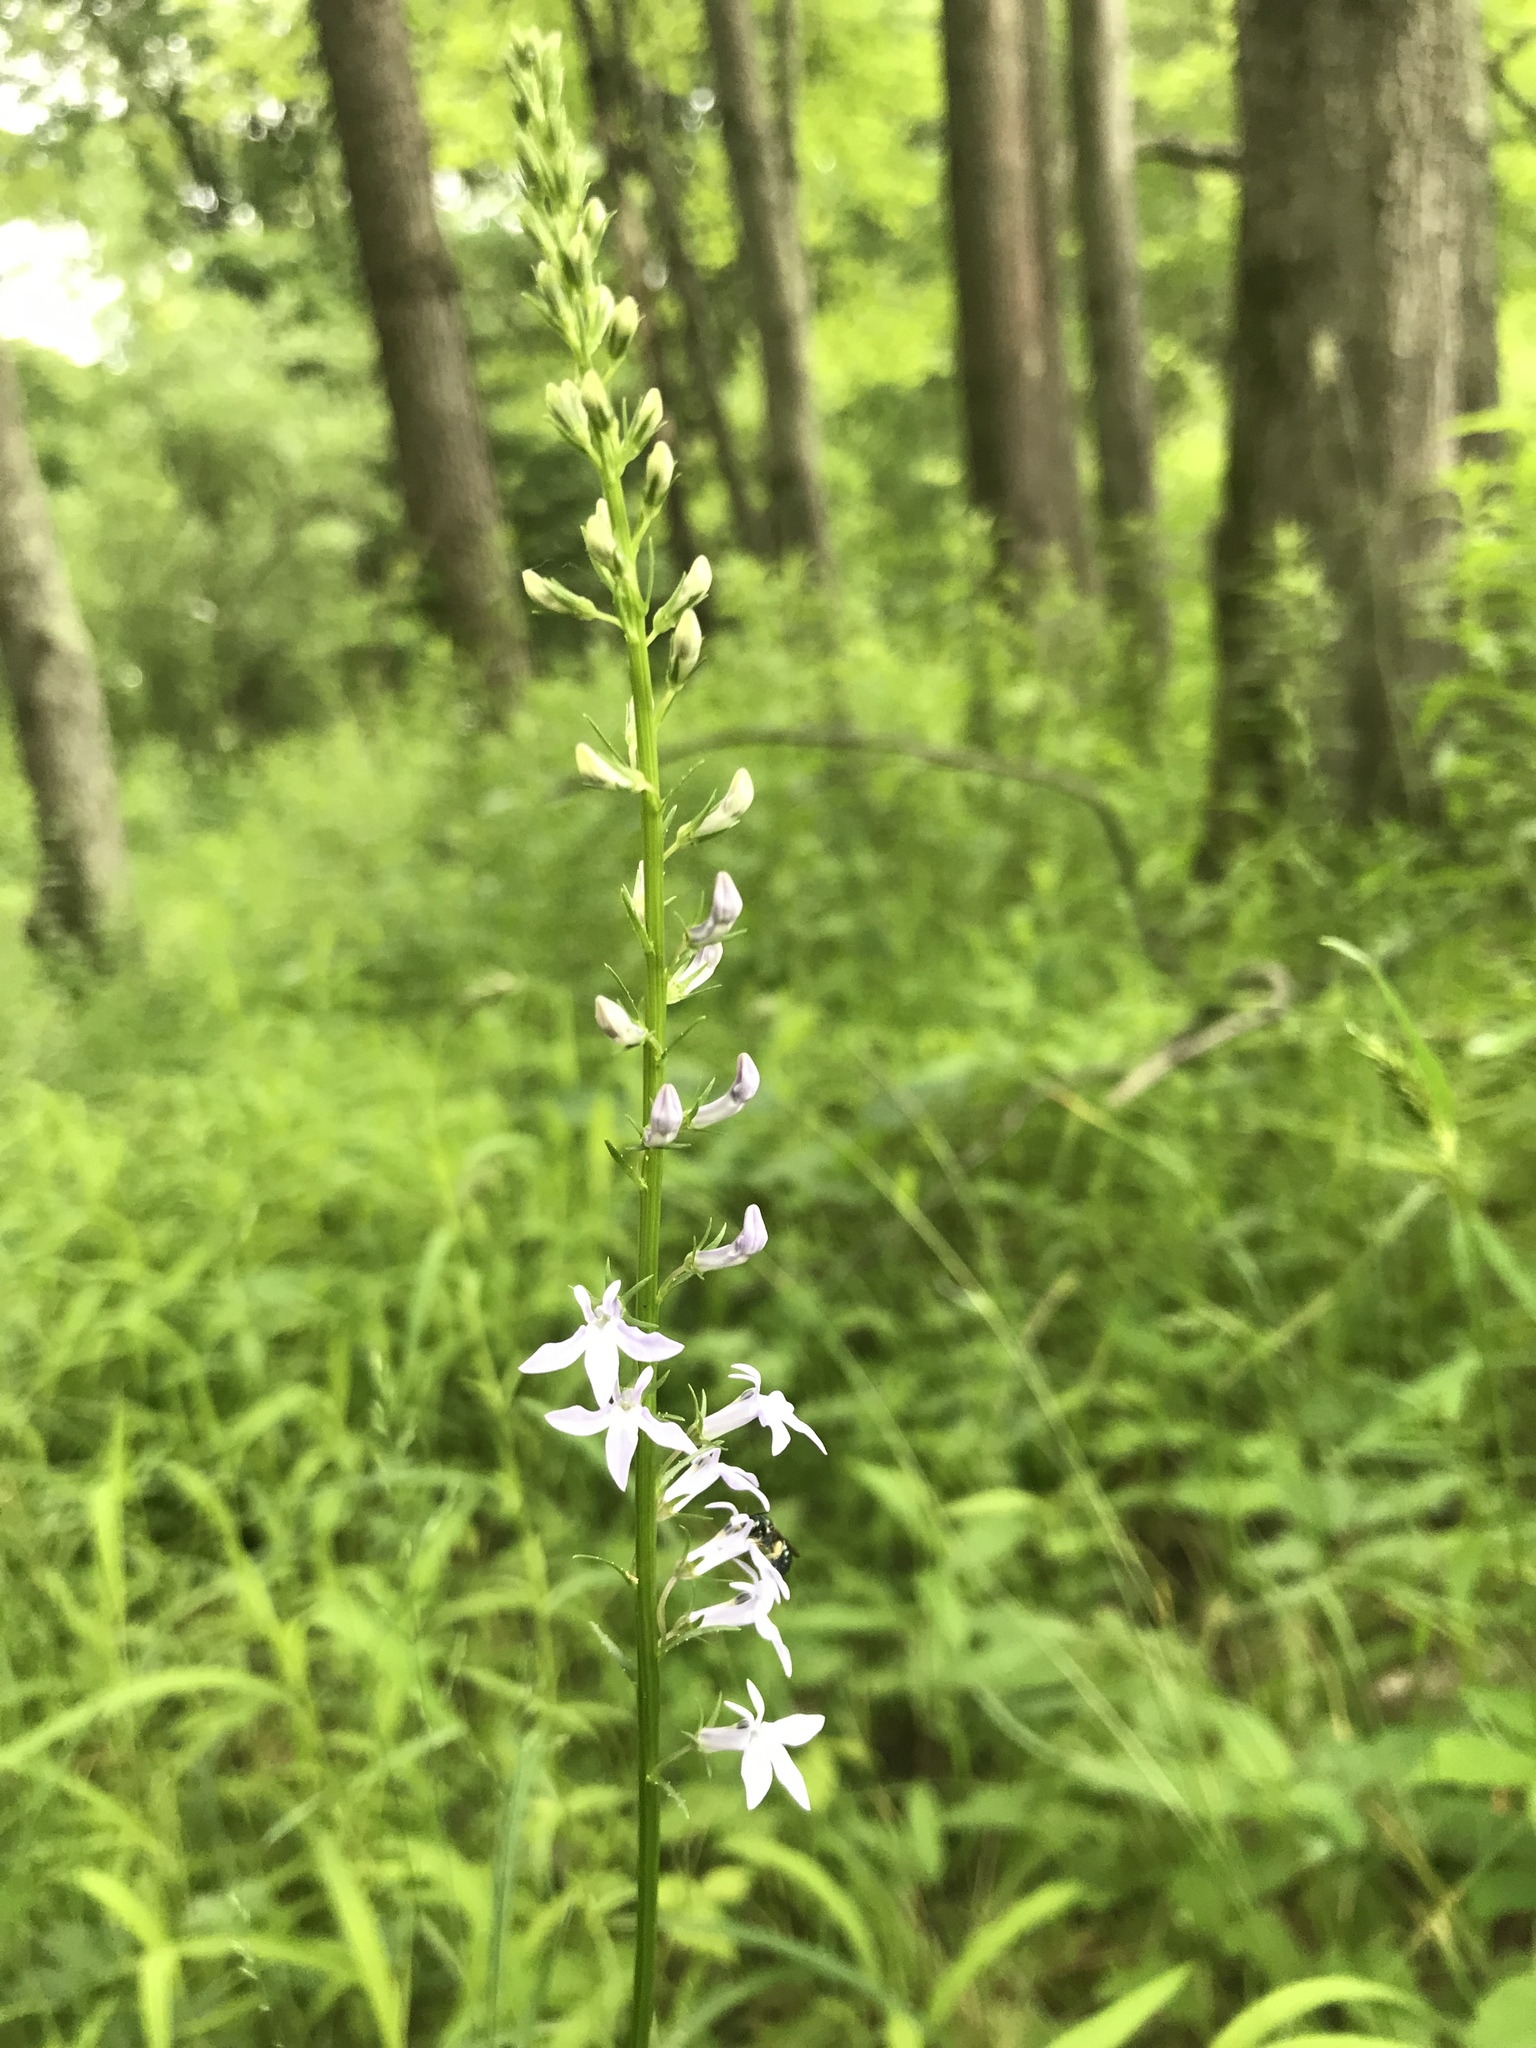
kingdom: Plantae
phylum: Tracheophyta
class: Magnoliopsida
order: Asterales
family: Campanulaceae
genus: Lobelia
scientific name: Lobelia spicata
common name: Pale-spike lobelia
